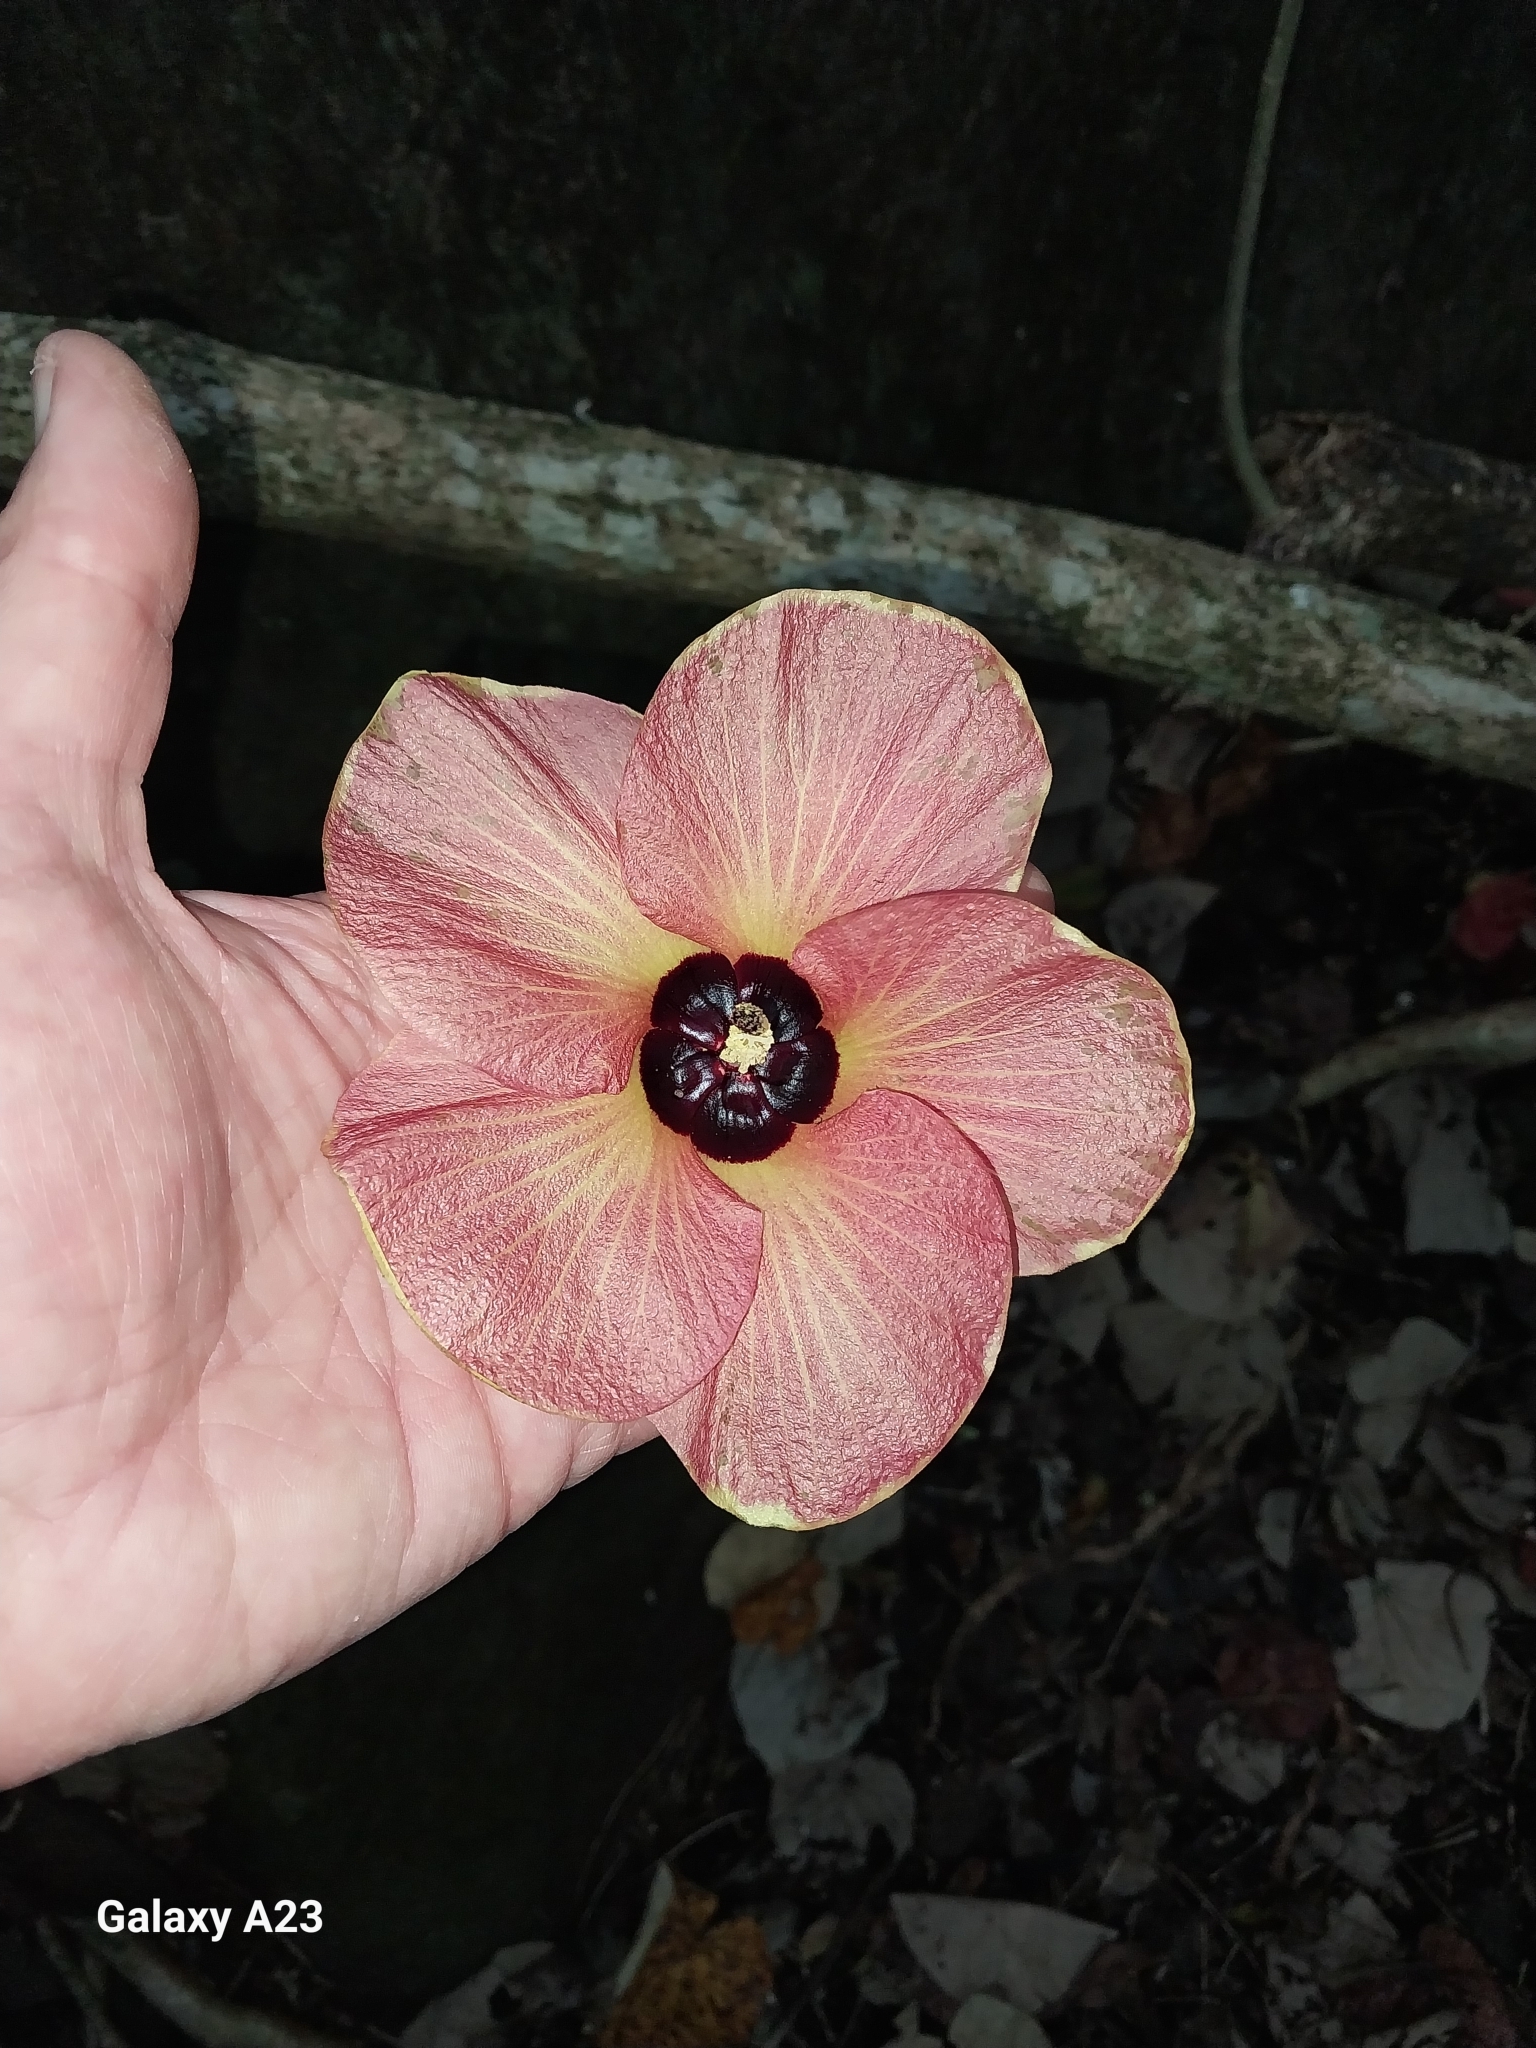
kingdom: Plantae
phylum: Tracheophyta
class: Magnoliopsida
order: Malvales
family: Malvaceae
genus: Talipariti
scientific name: Talipariti tiliaceum
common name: Sea hibiscus
